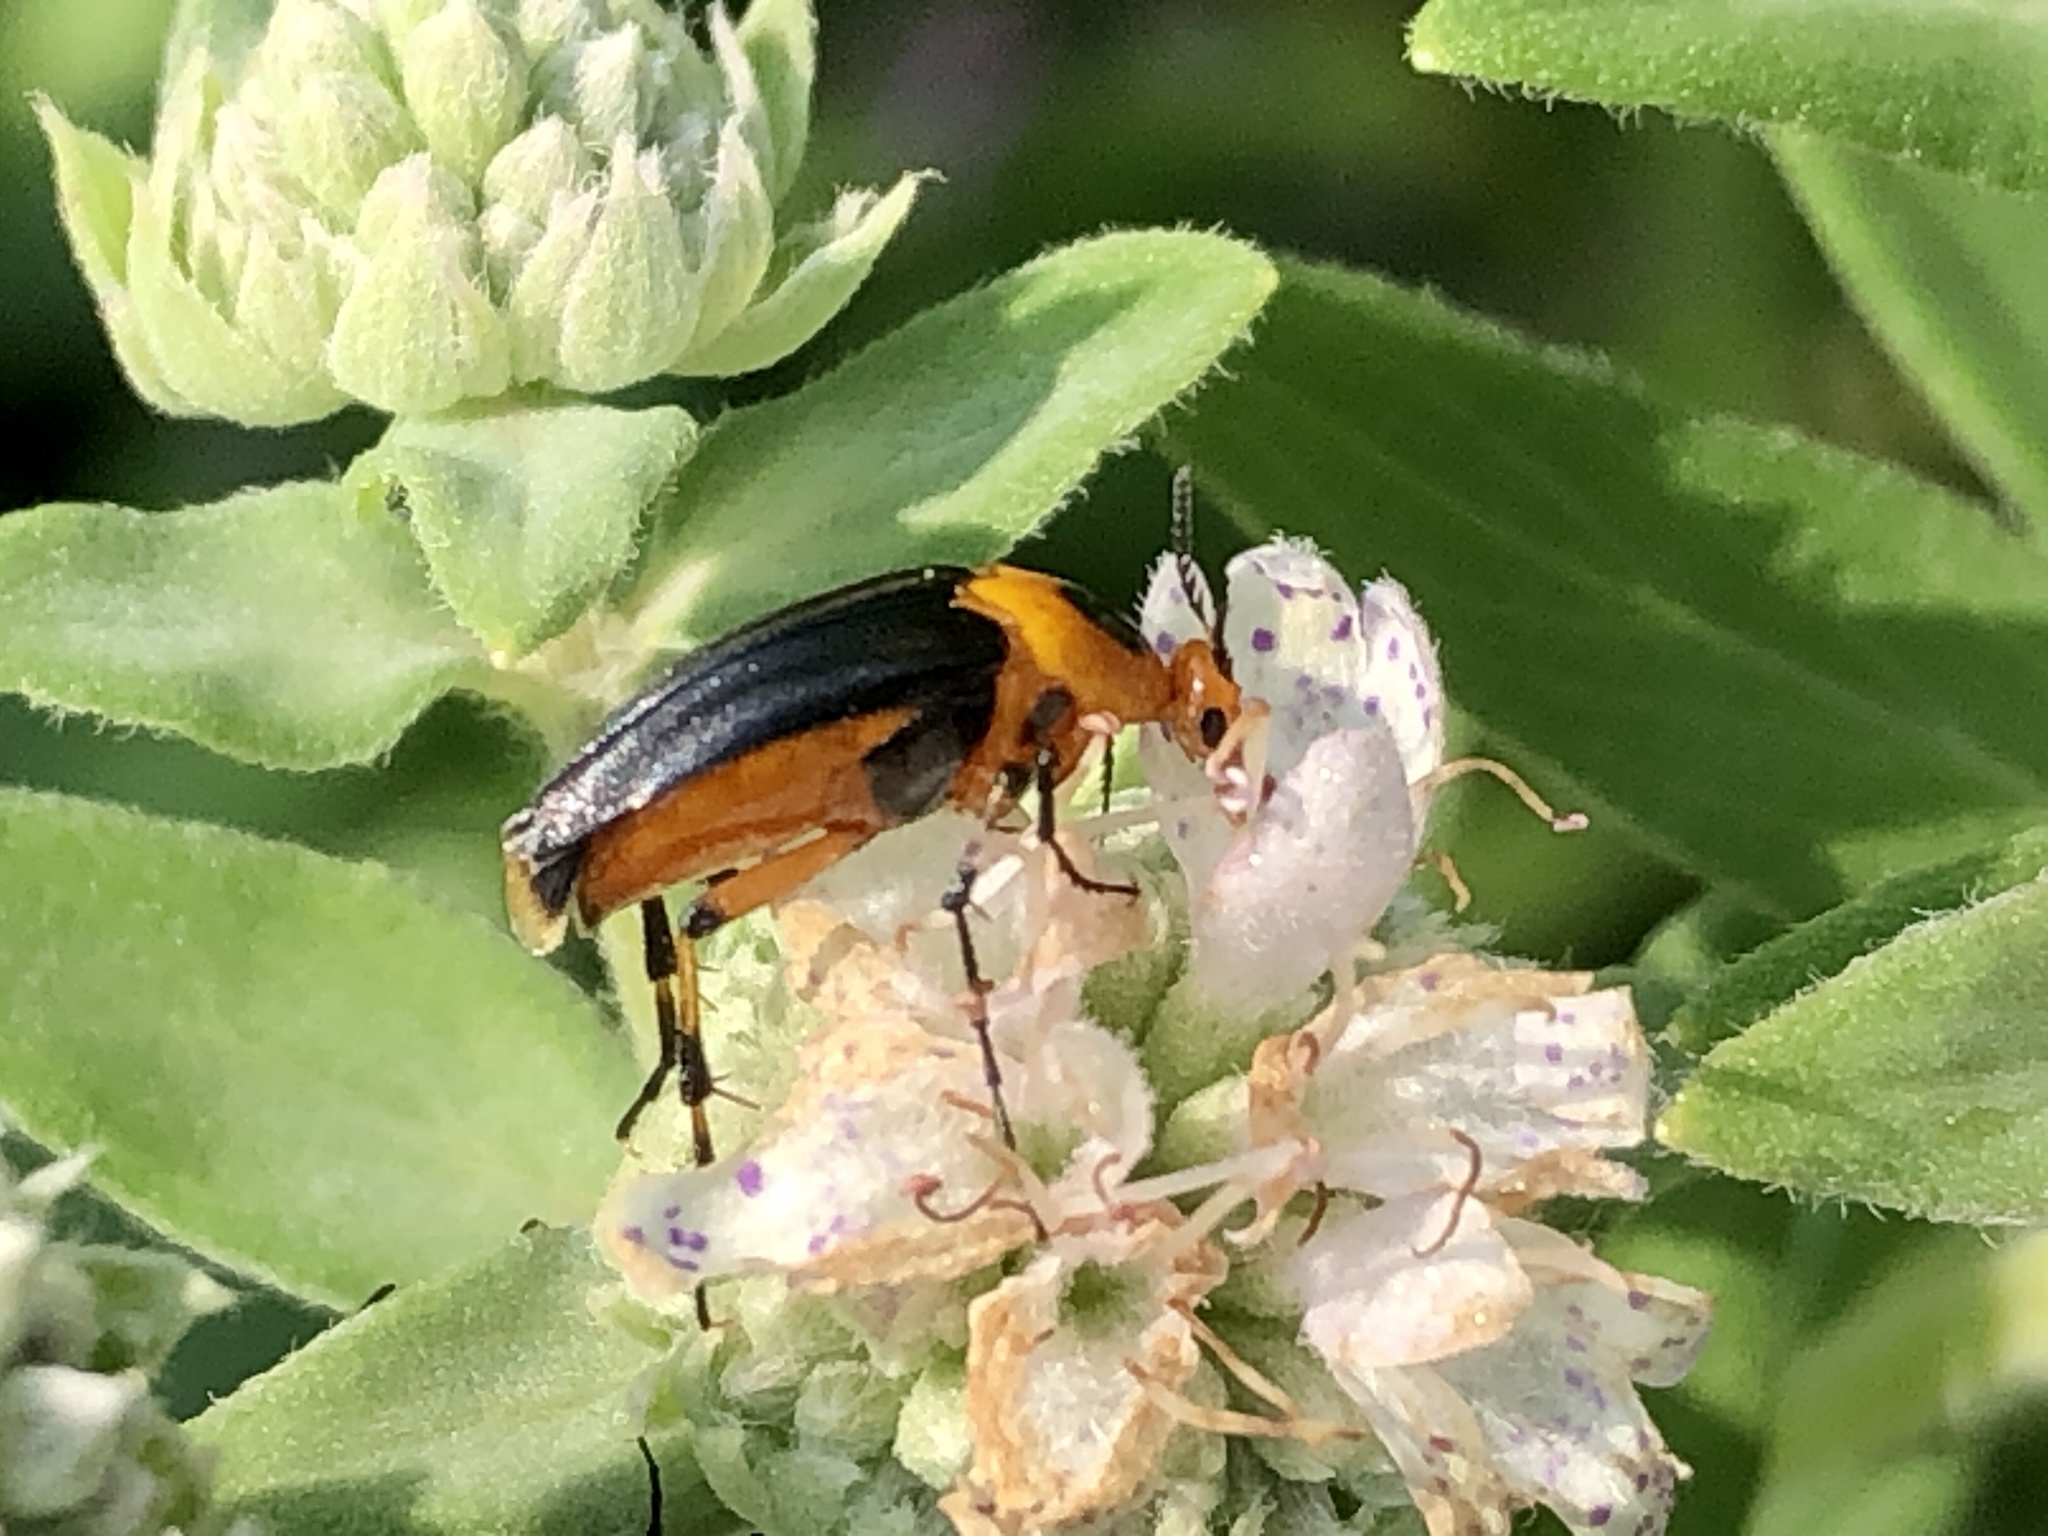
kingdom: Animalia
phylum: Arthropoda
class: Insecta
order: Coleoptera
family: Ripiphoridae
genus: Macrosiagon
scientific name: Macrosiagon limbatum
